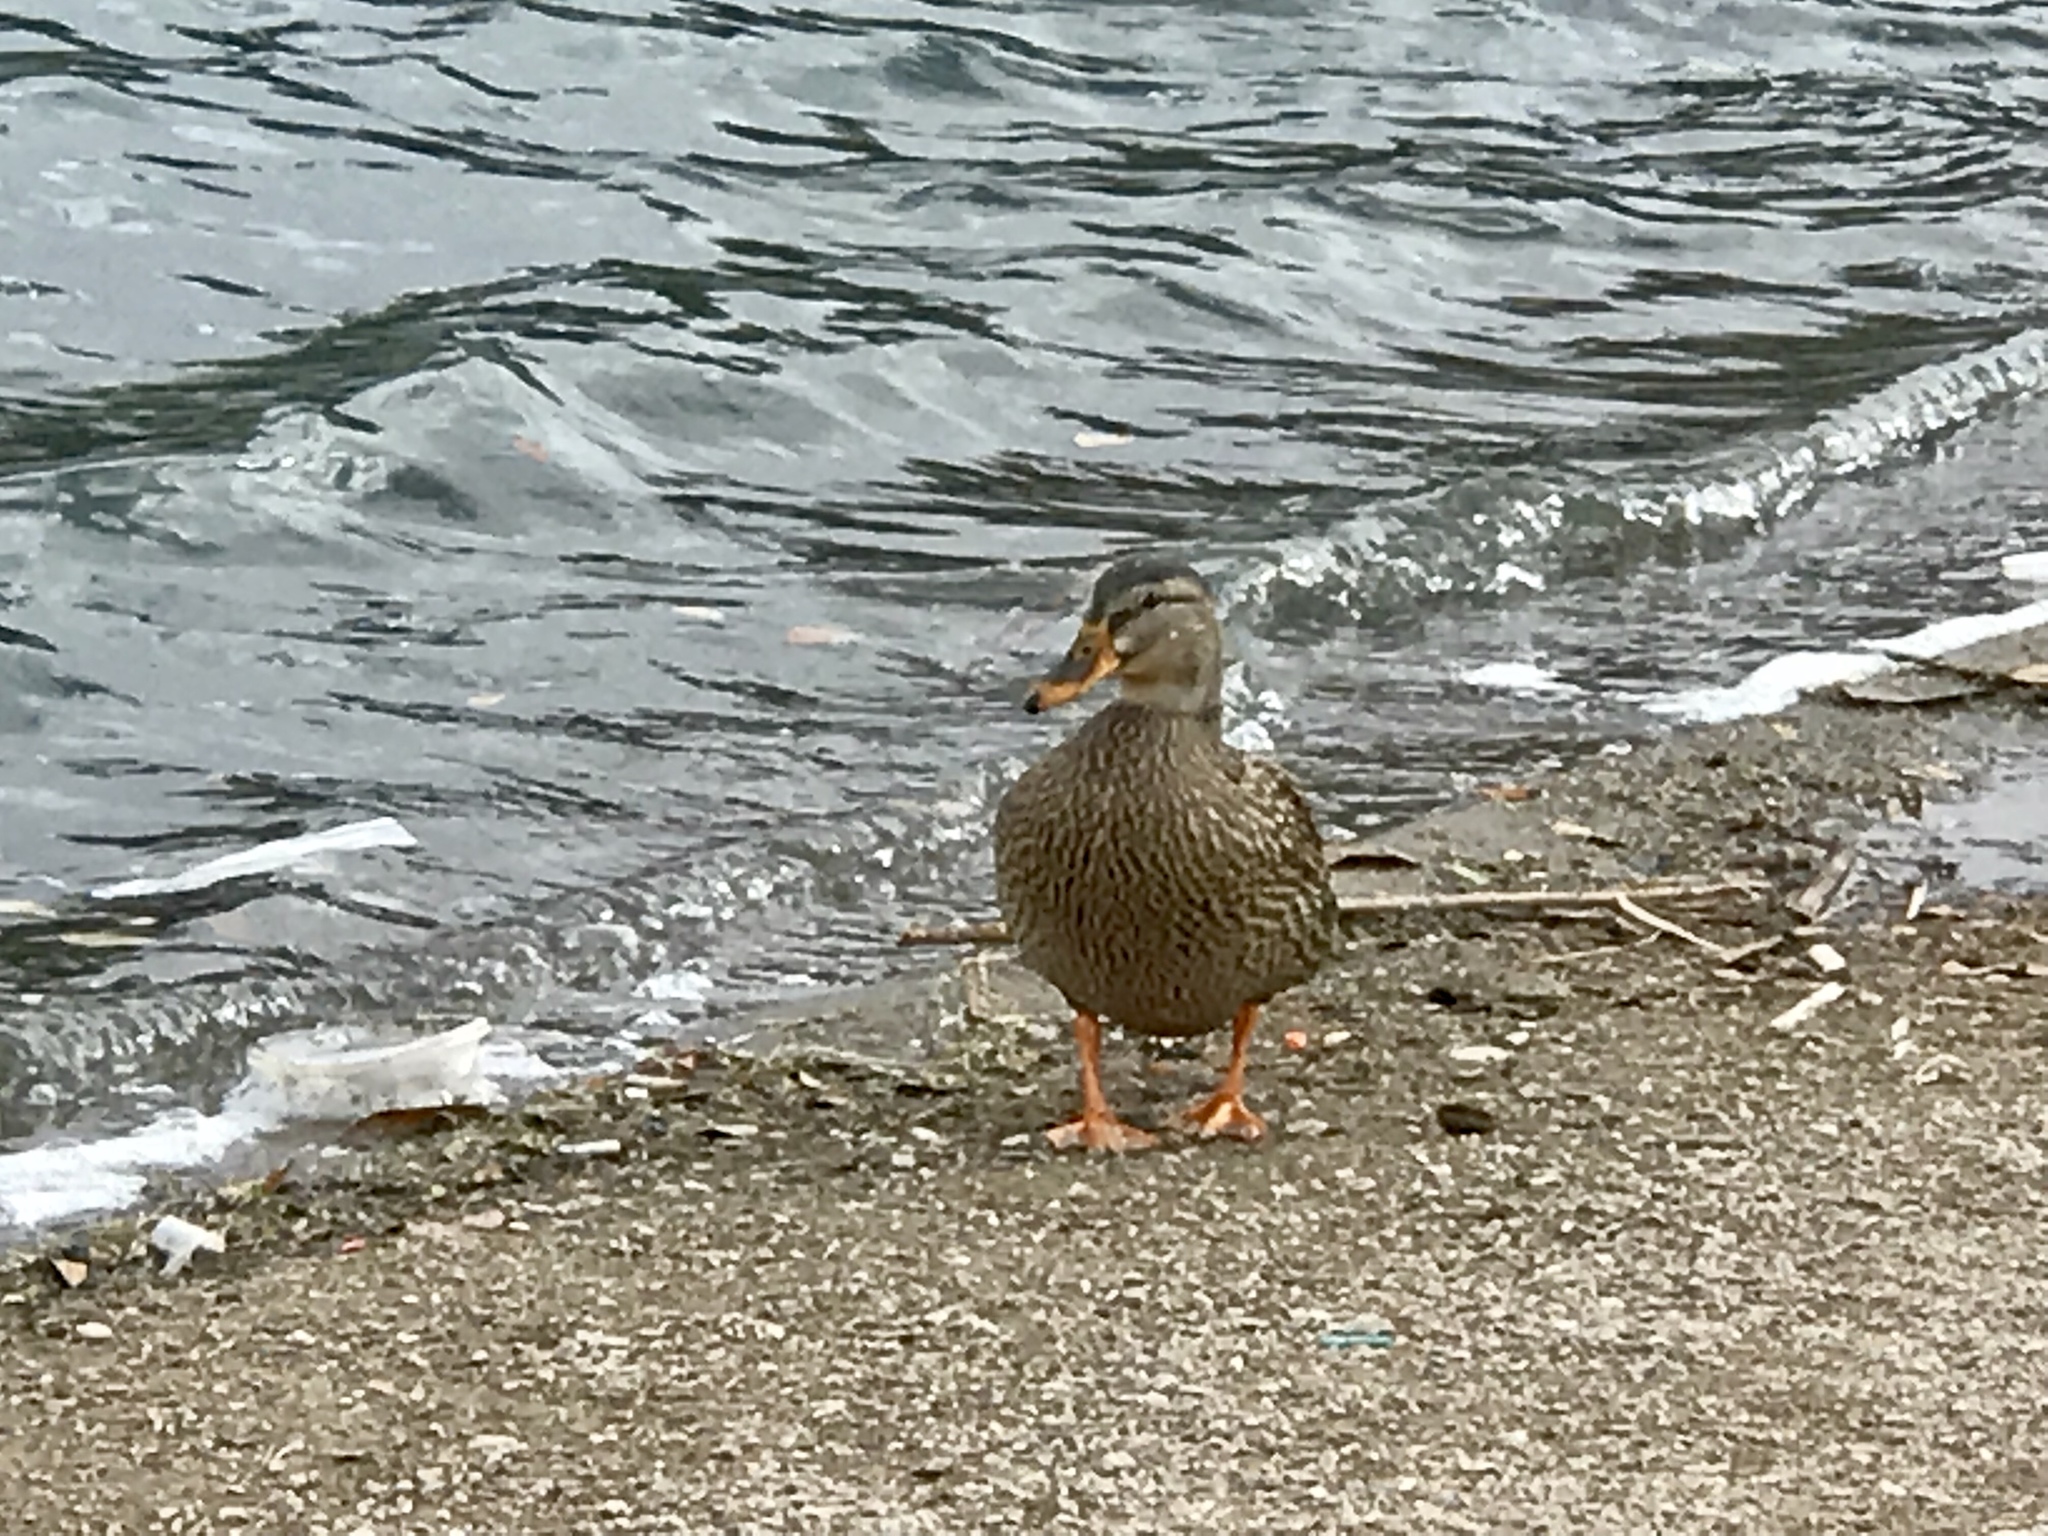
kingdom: Animalia
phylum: Chordata
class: Aves
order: Anseriformes
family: Anatidae
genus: Anas
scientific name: Anas platyrhynchos
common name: Mallard
